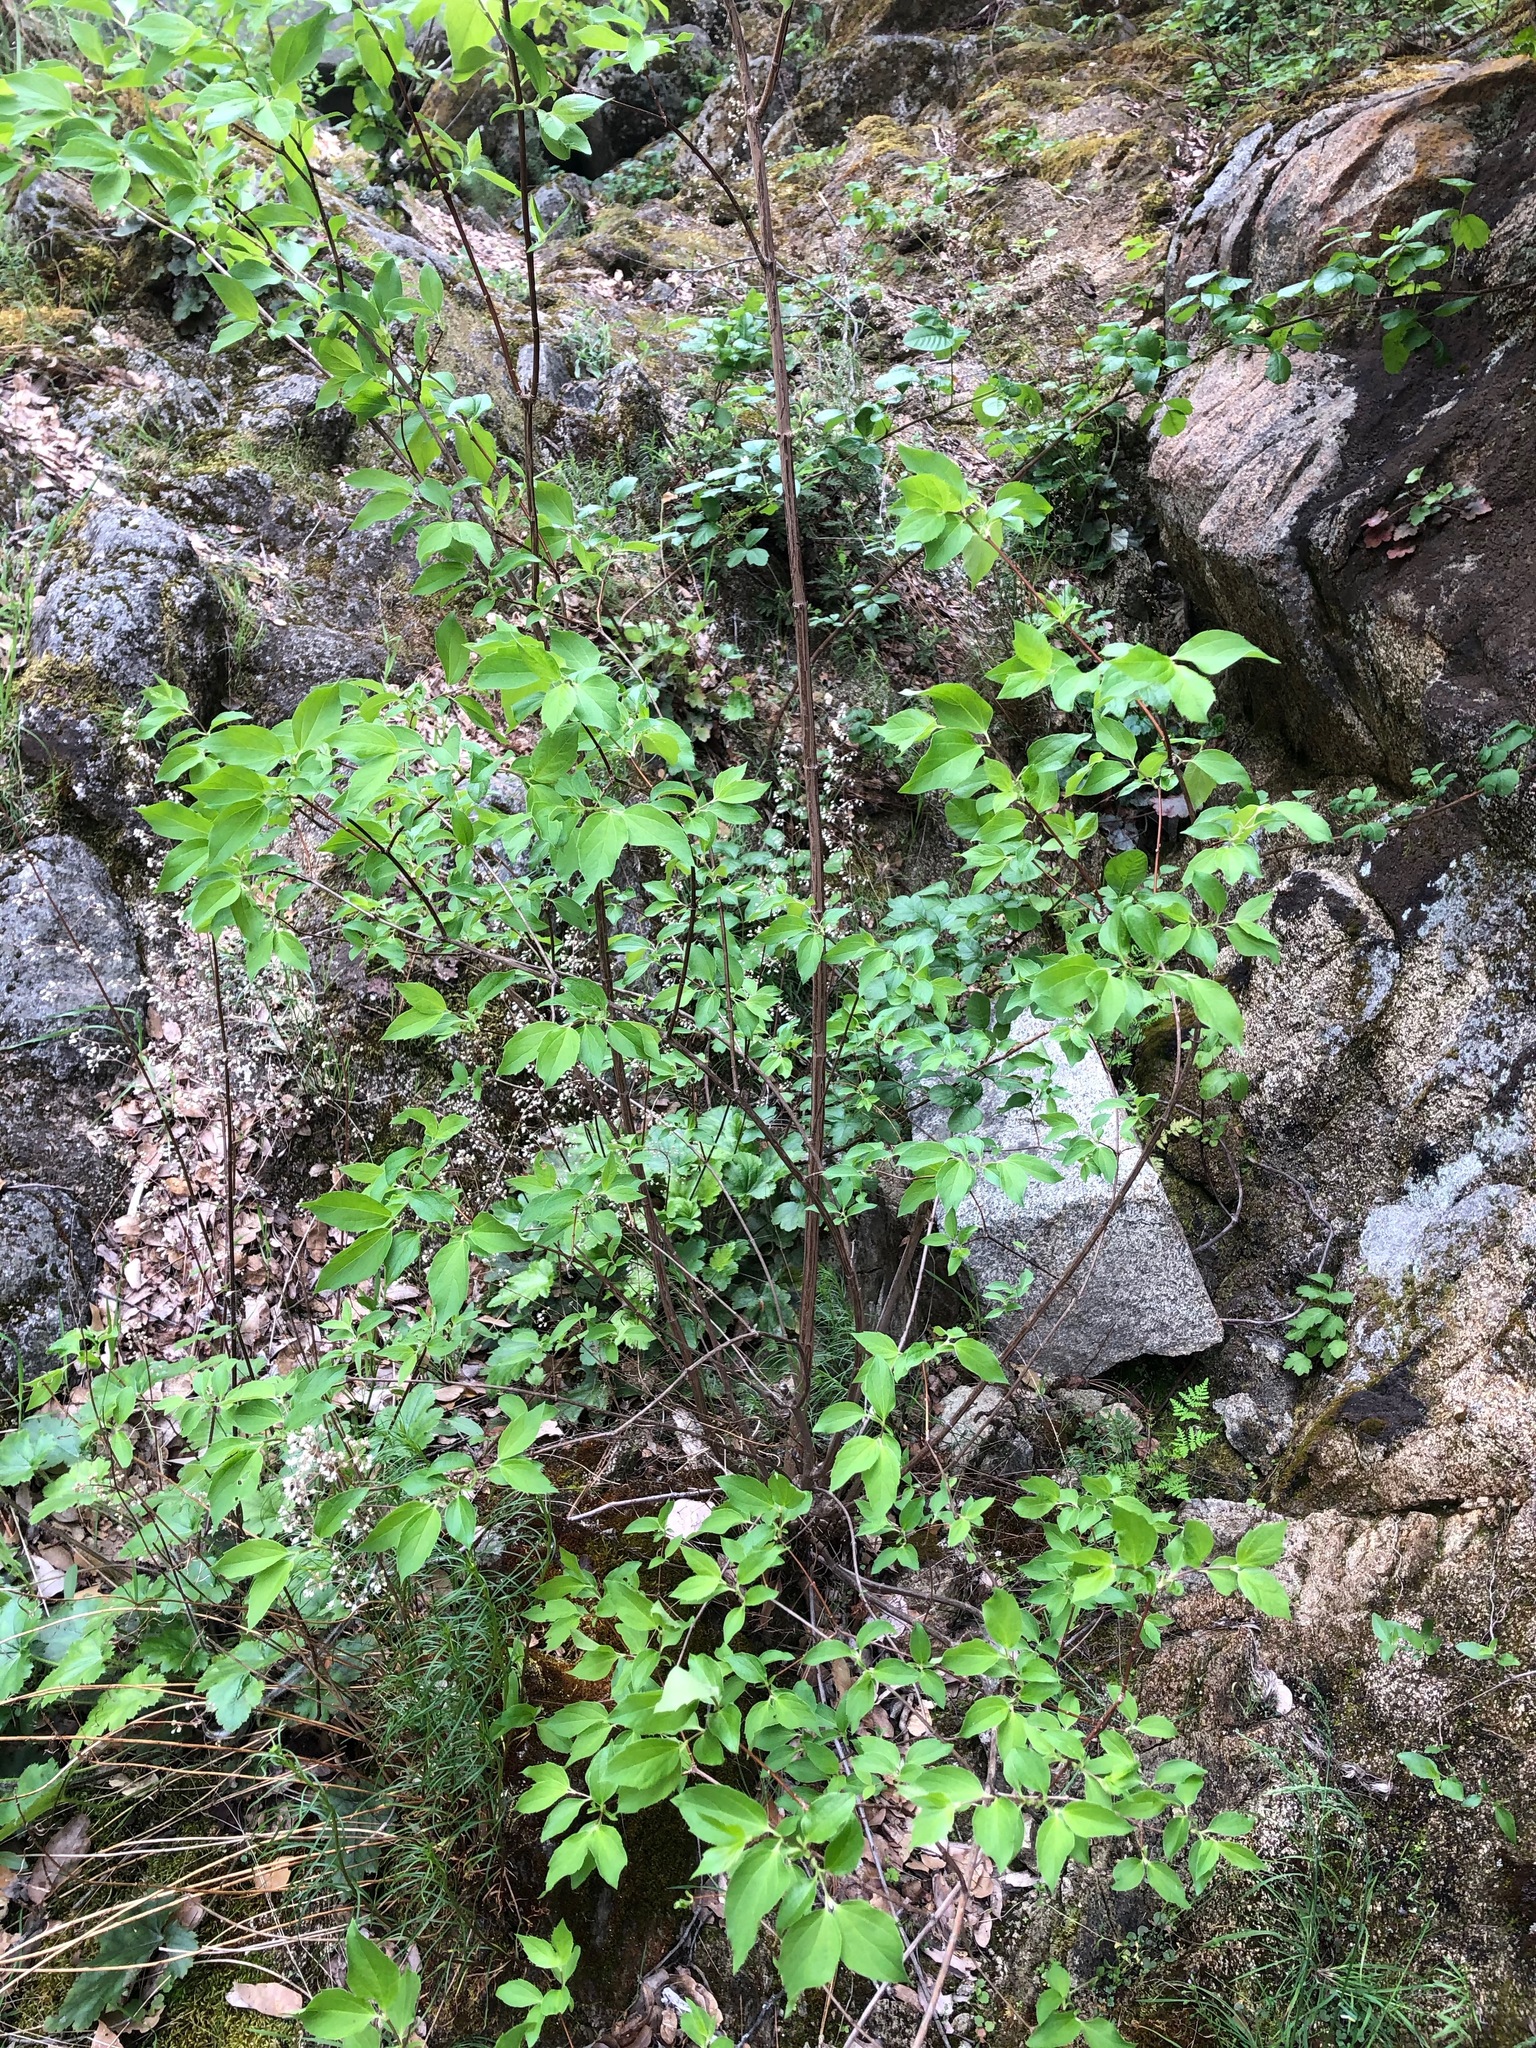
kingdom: Plantae
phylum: Tracheophyta
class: Magnoliopsida
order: Cornales
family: Hydrangeaceae
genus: Philadelphus
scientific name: Philadelphus lewisii
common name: Lewis's mock orange
